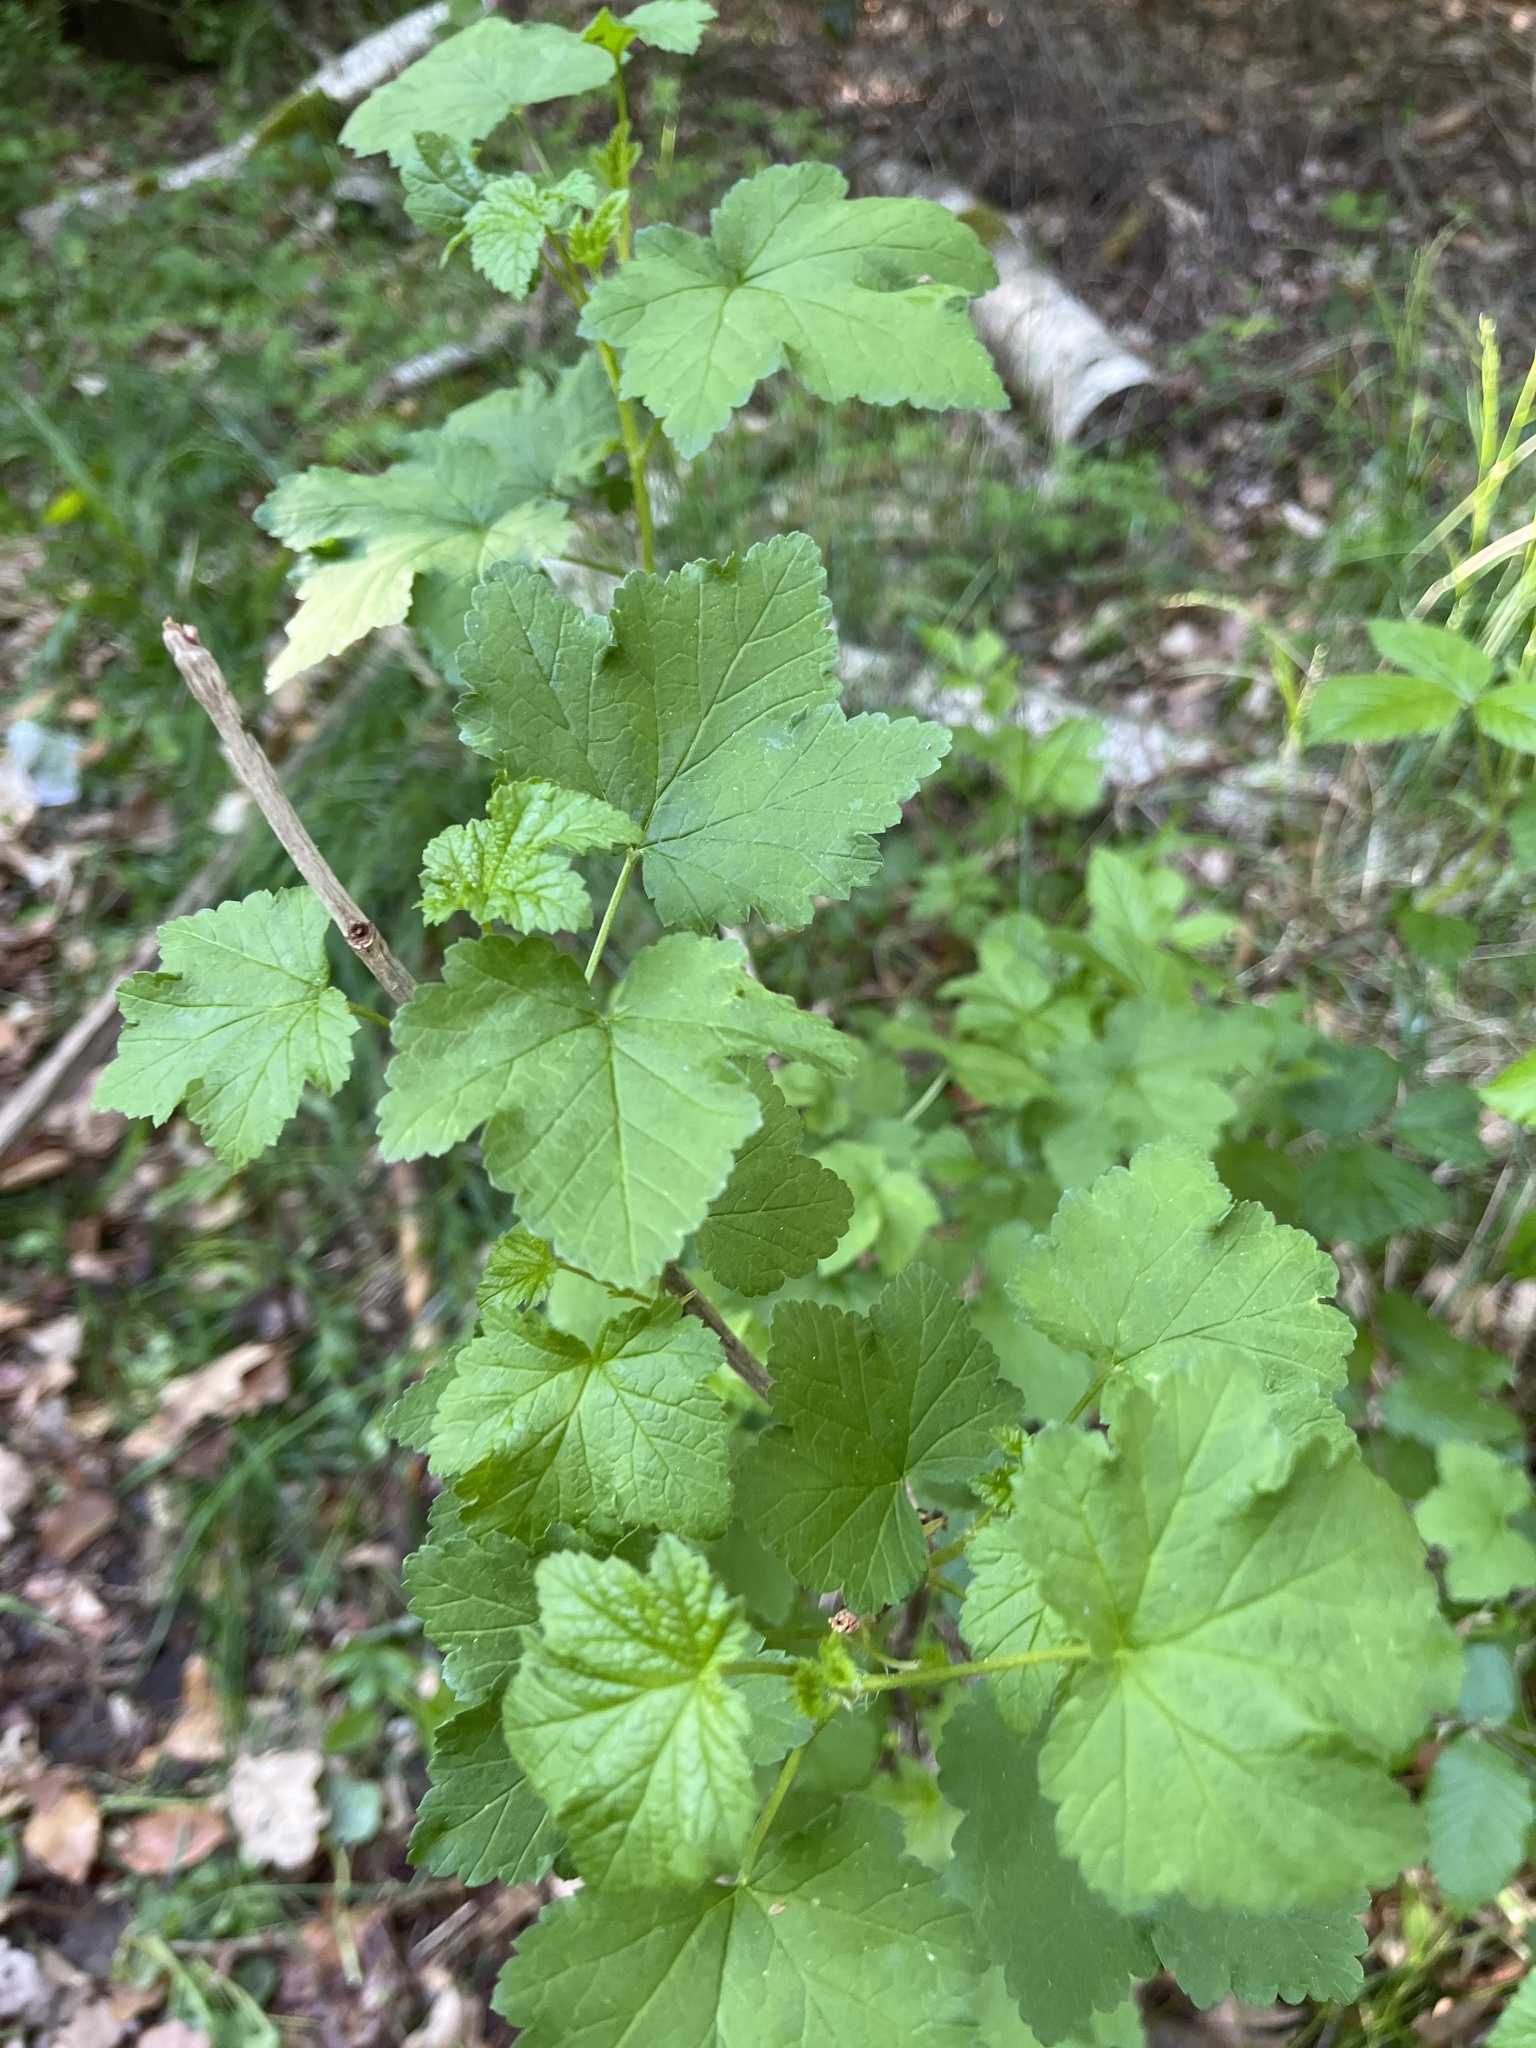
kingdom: Plantae
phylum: Tracheophyta
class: Magnoliopsida
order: Saxifragales
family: Grossulariaceae
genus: Ribes
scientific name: Ribes rubrum
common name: Red currant
